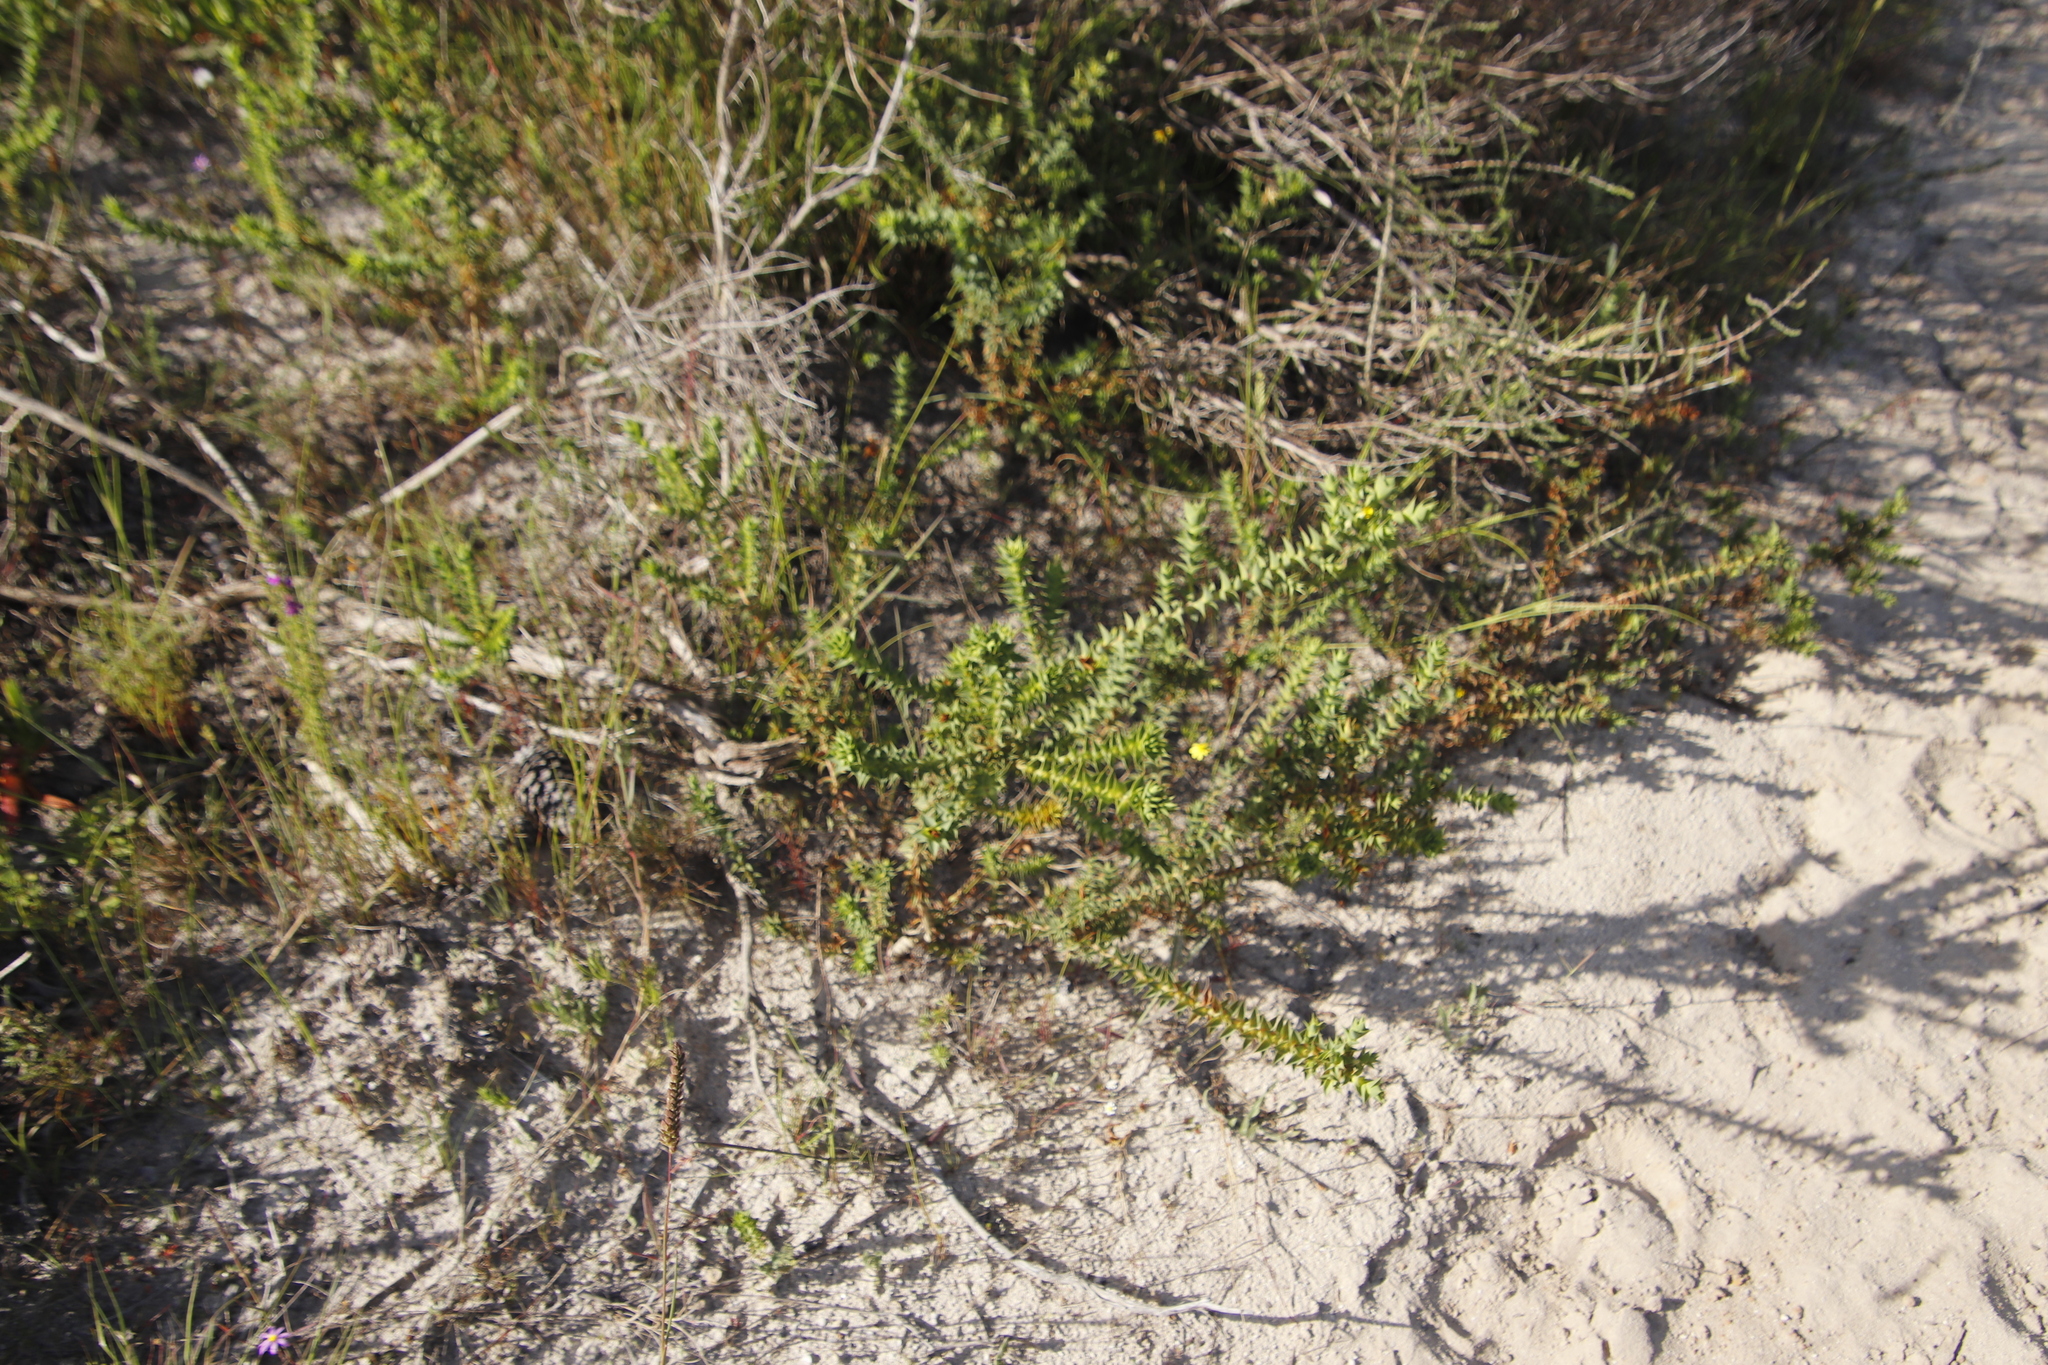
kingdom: Plantae
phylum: Tracheophyta
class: Magnoliopsida
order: Fabales
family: Fabaceae
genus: Aspalathus
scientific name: Aspalathus cordata
